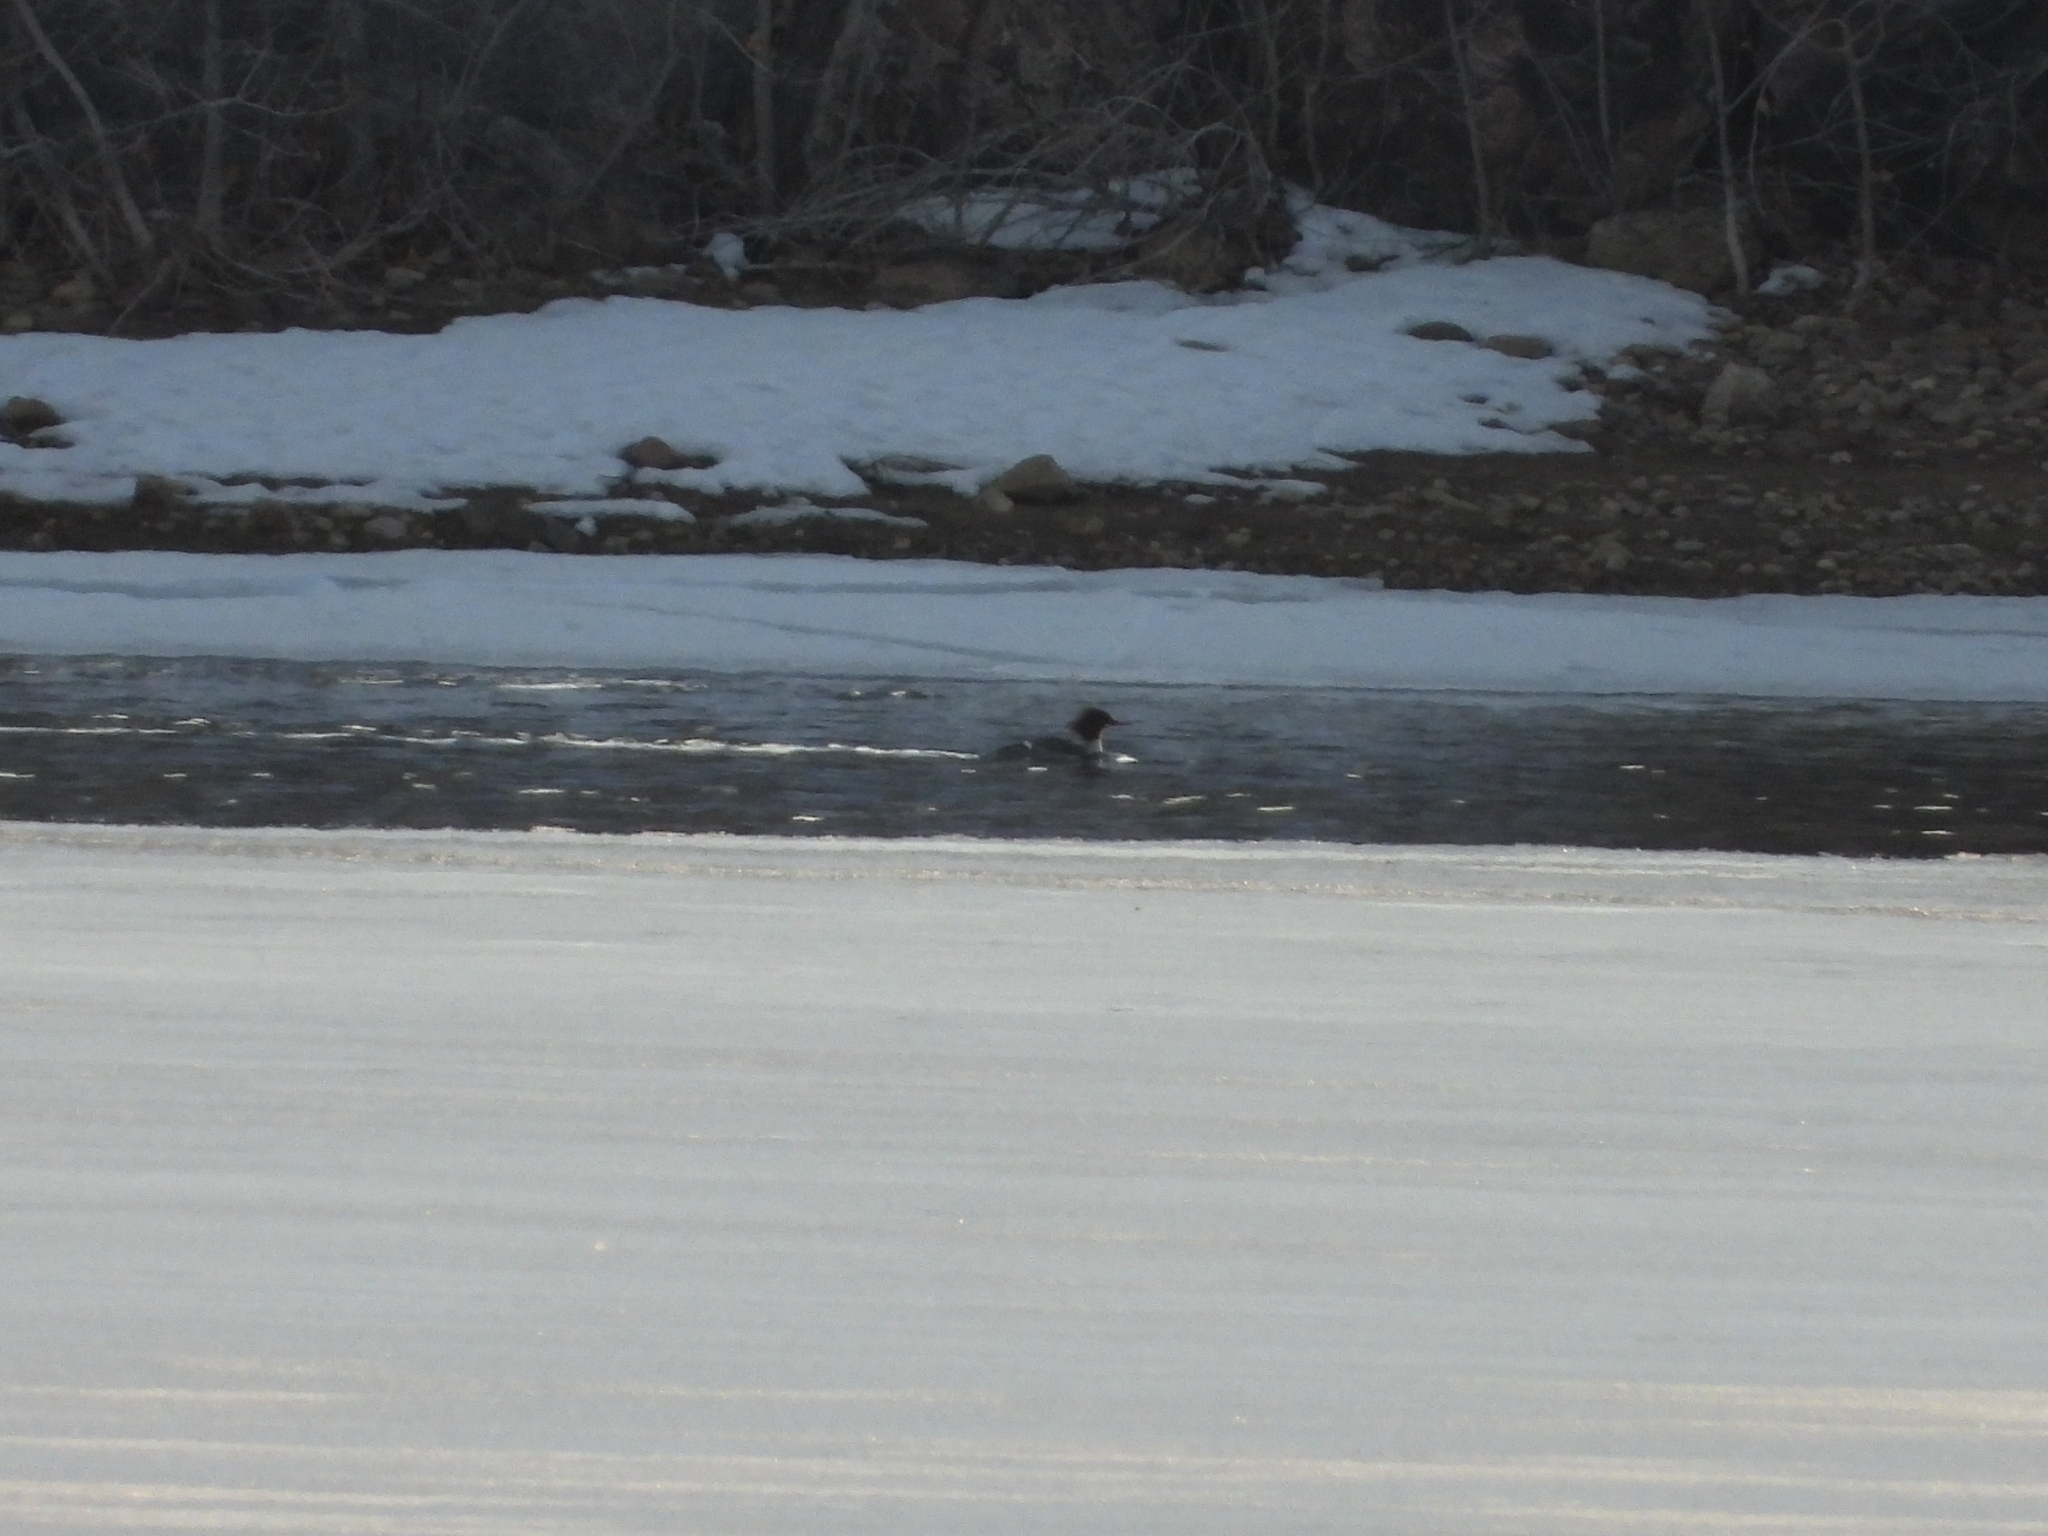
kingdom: Animalia
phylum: Chordata
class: Aves
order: Anseriformes
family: Anatidae
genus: Mergus
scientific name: Mergus merganser
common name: Common merganser
